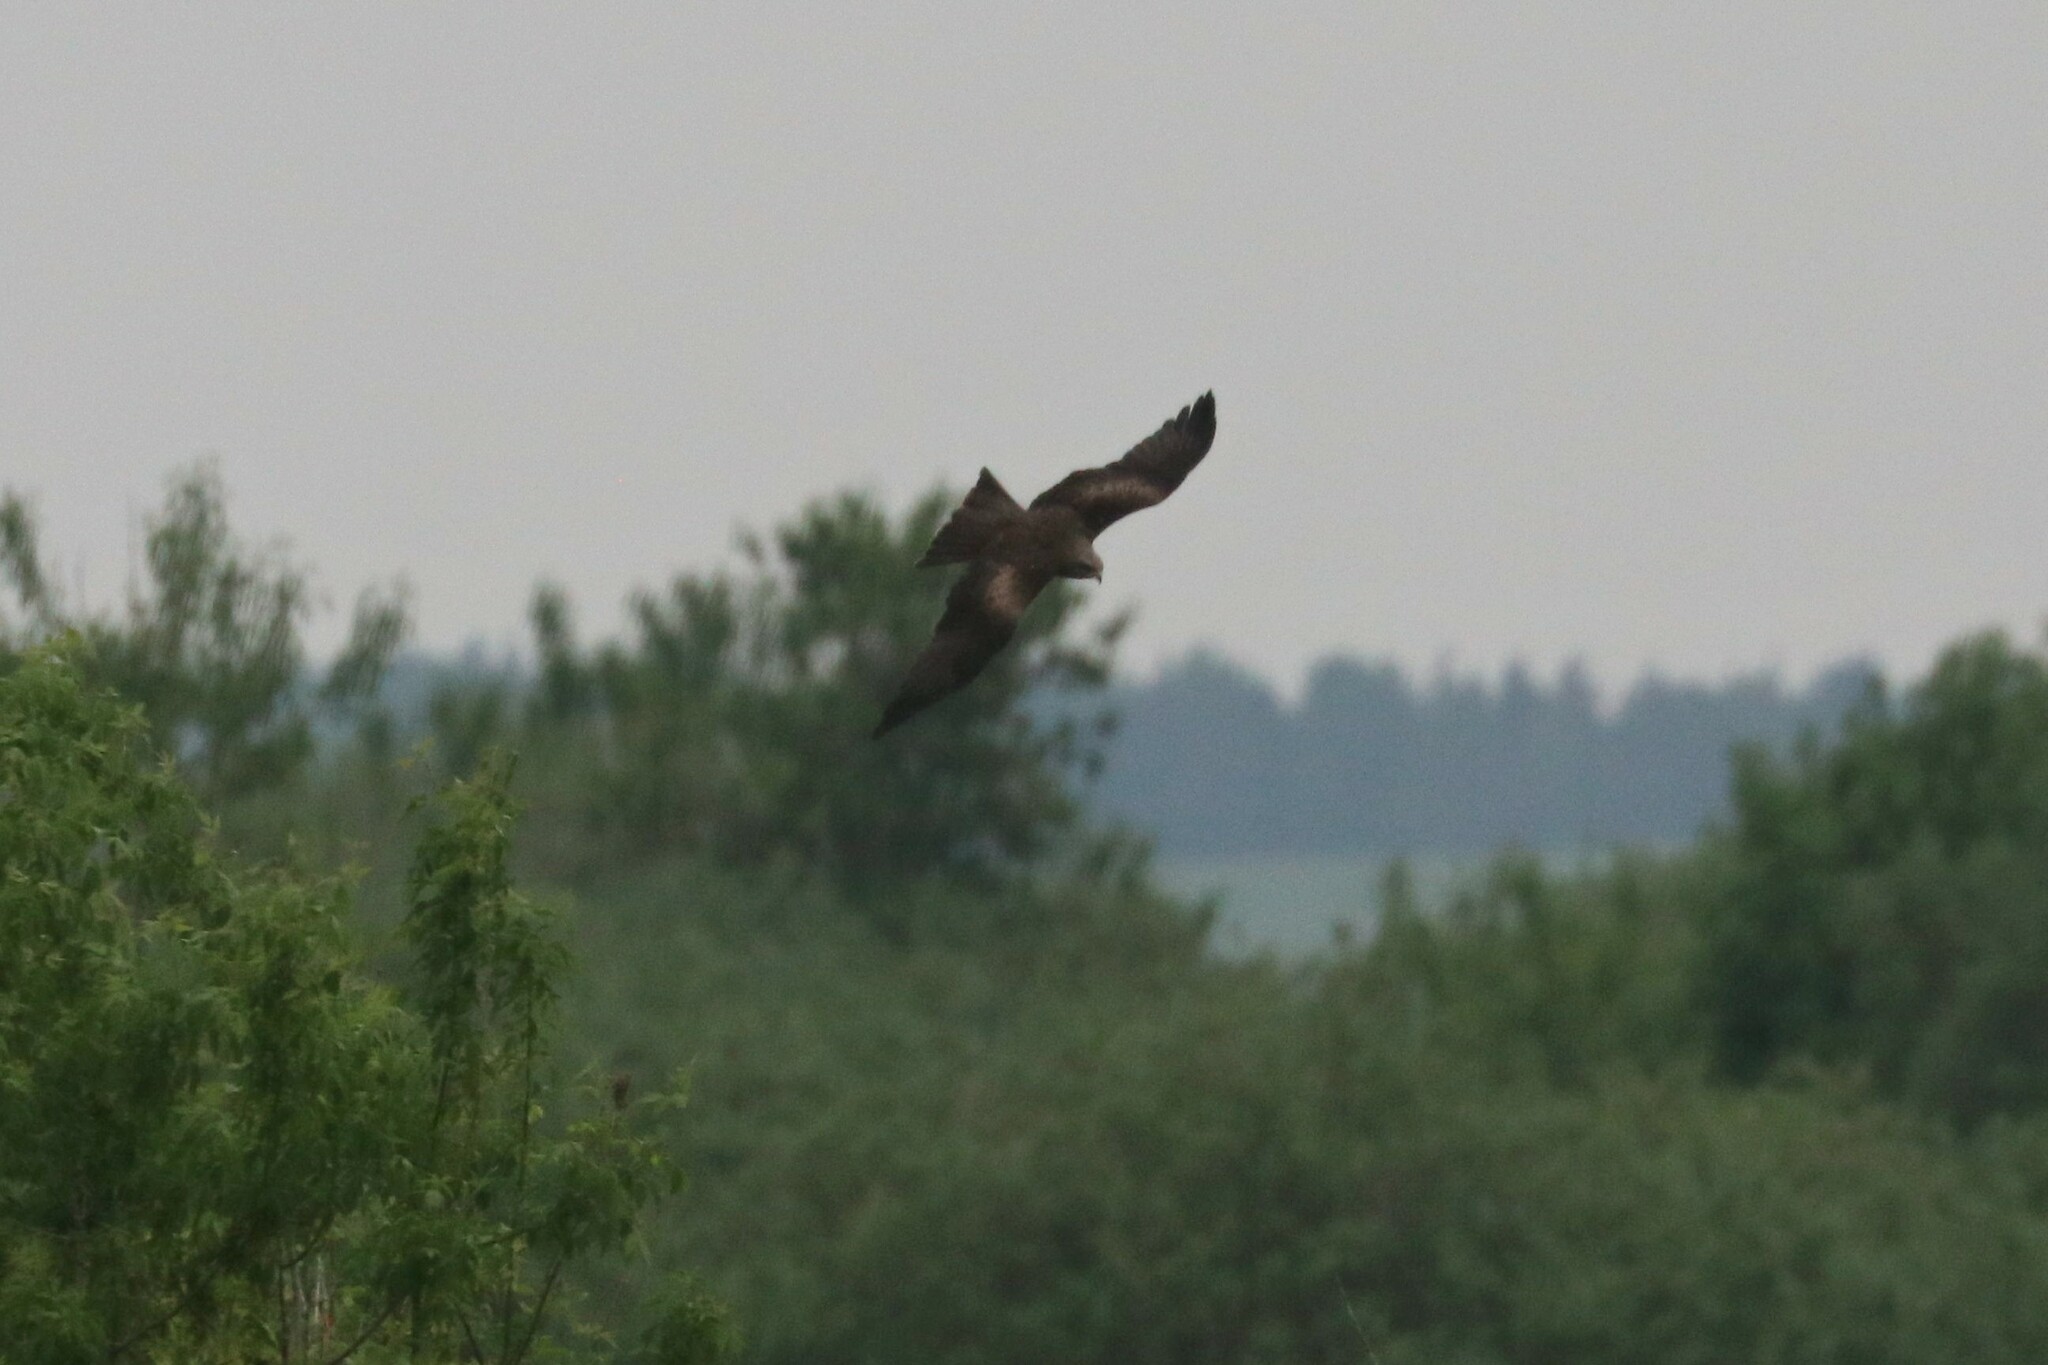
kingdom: Animalia
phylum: Chordata
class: Aves
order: Accipitriformes
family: Accipitridae
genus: Milvus
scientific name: Milvus migrans
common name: Black kite
